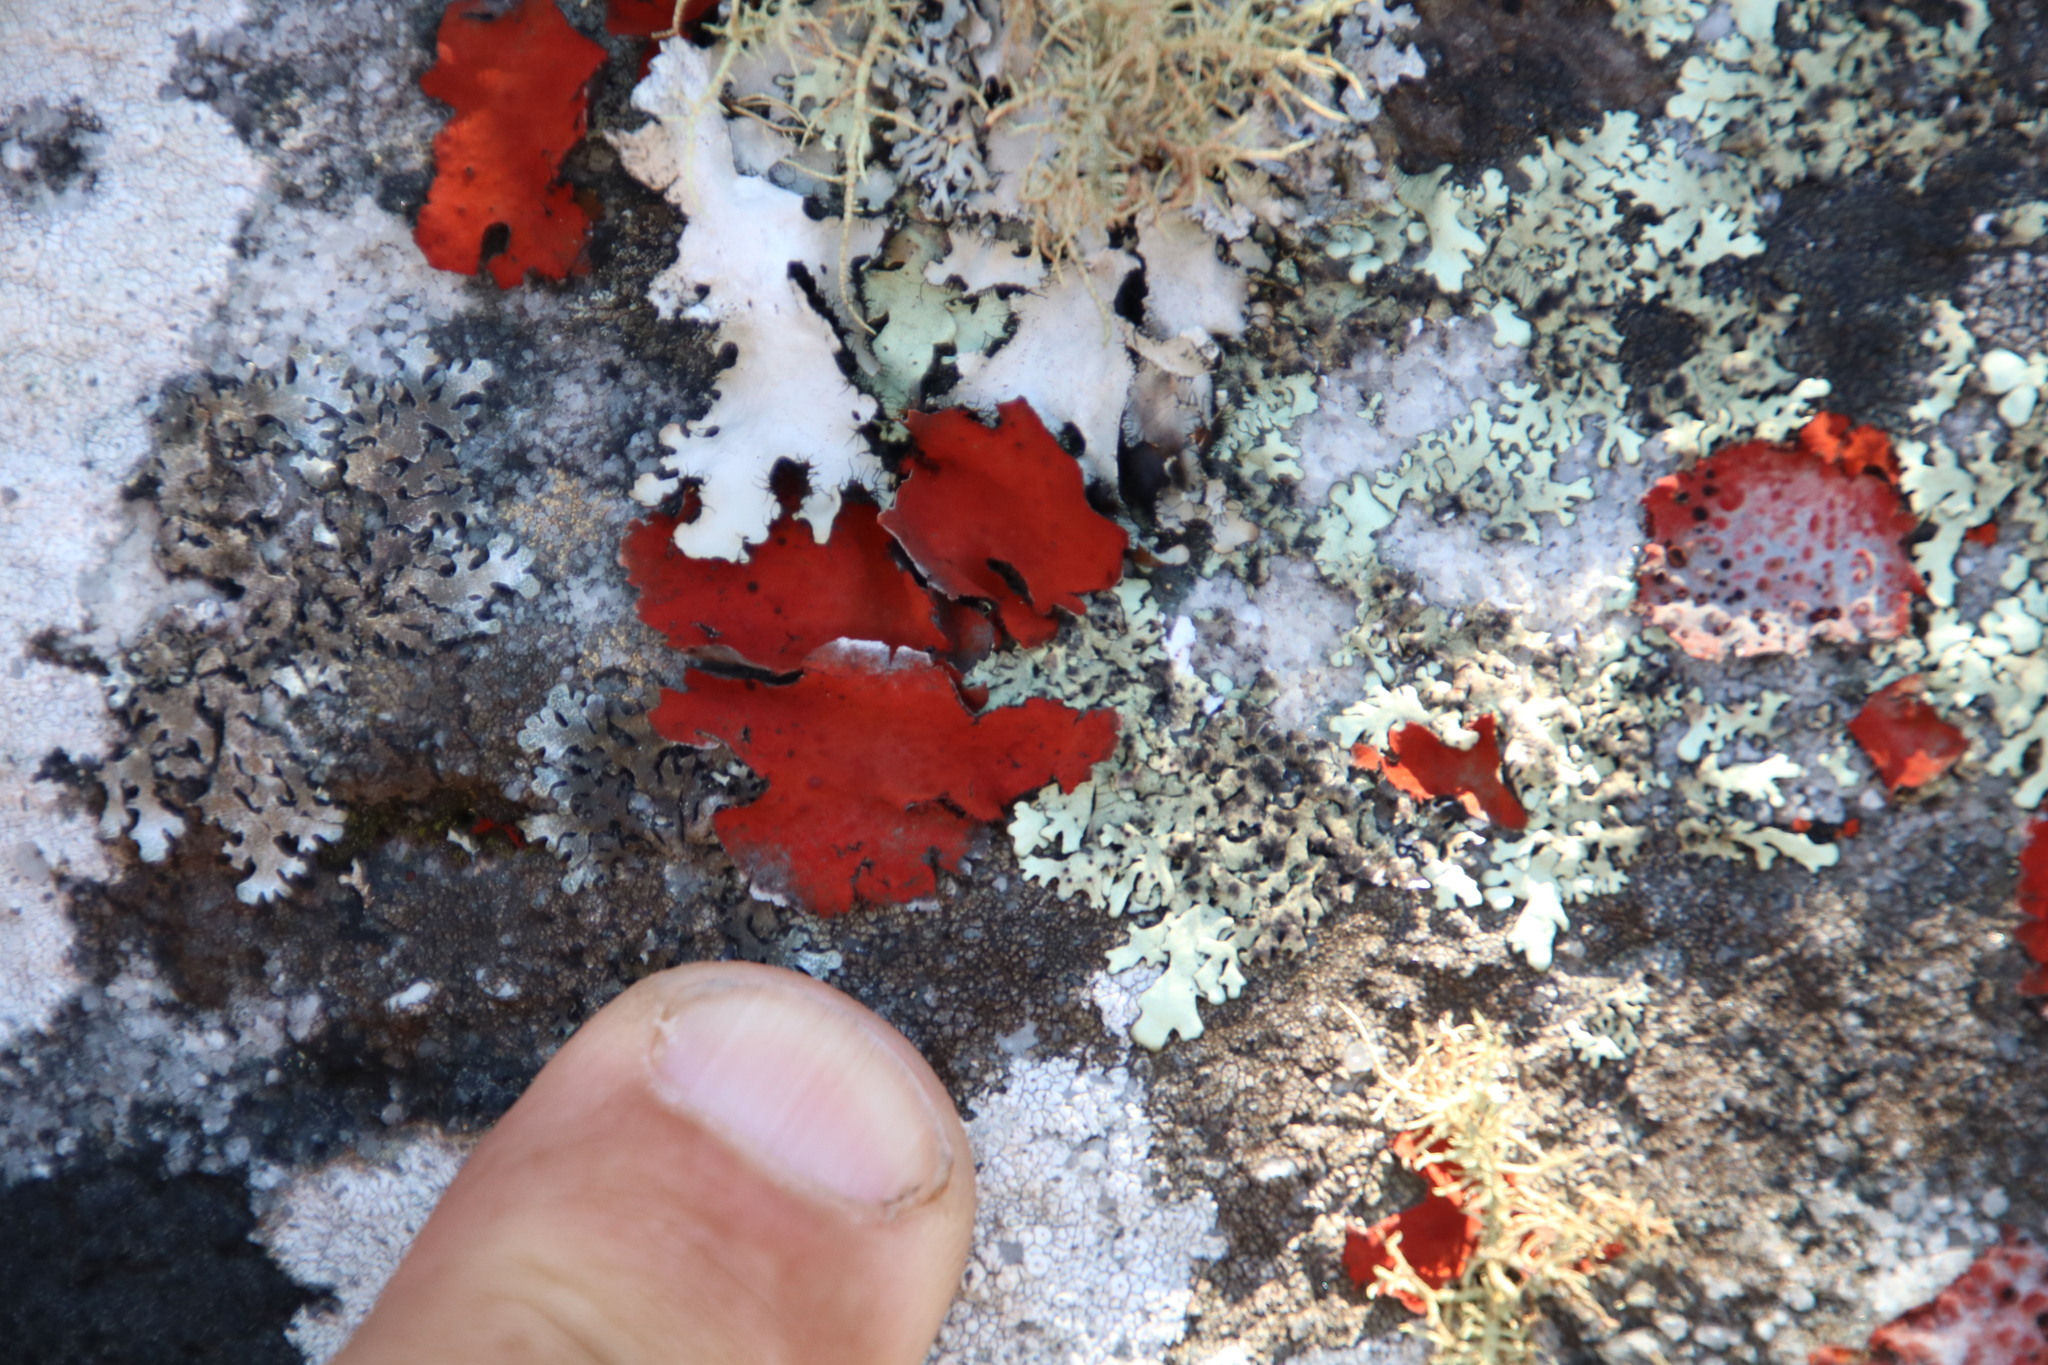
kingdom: Fungi
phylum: Ascomycota
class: Lecanoromycetes
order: Umbilicariales
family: Umbilicariaceae
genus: Lasallia
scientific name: Lasallia rubiginosa
